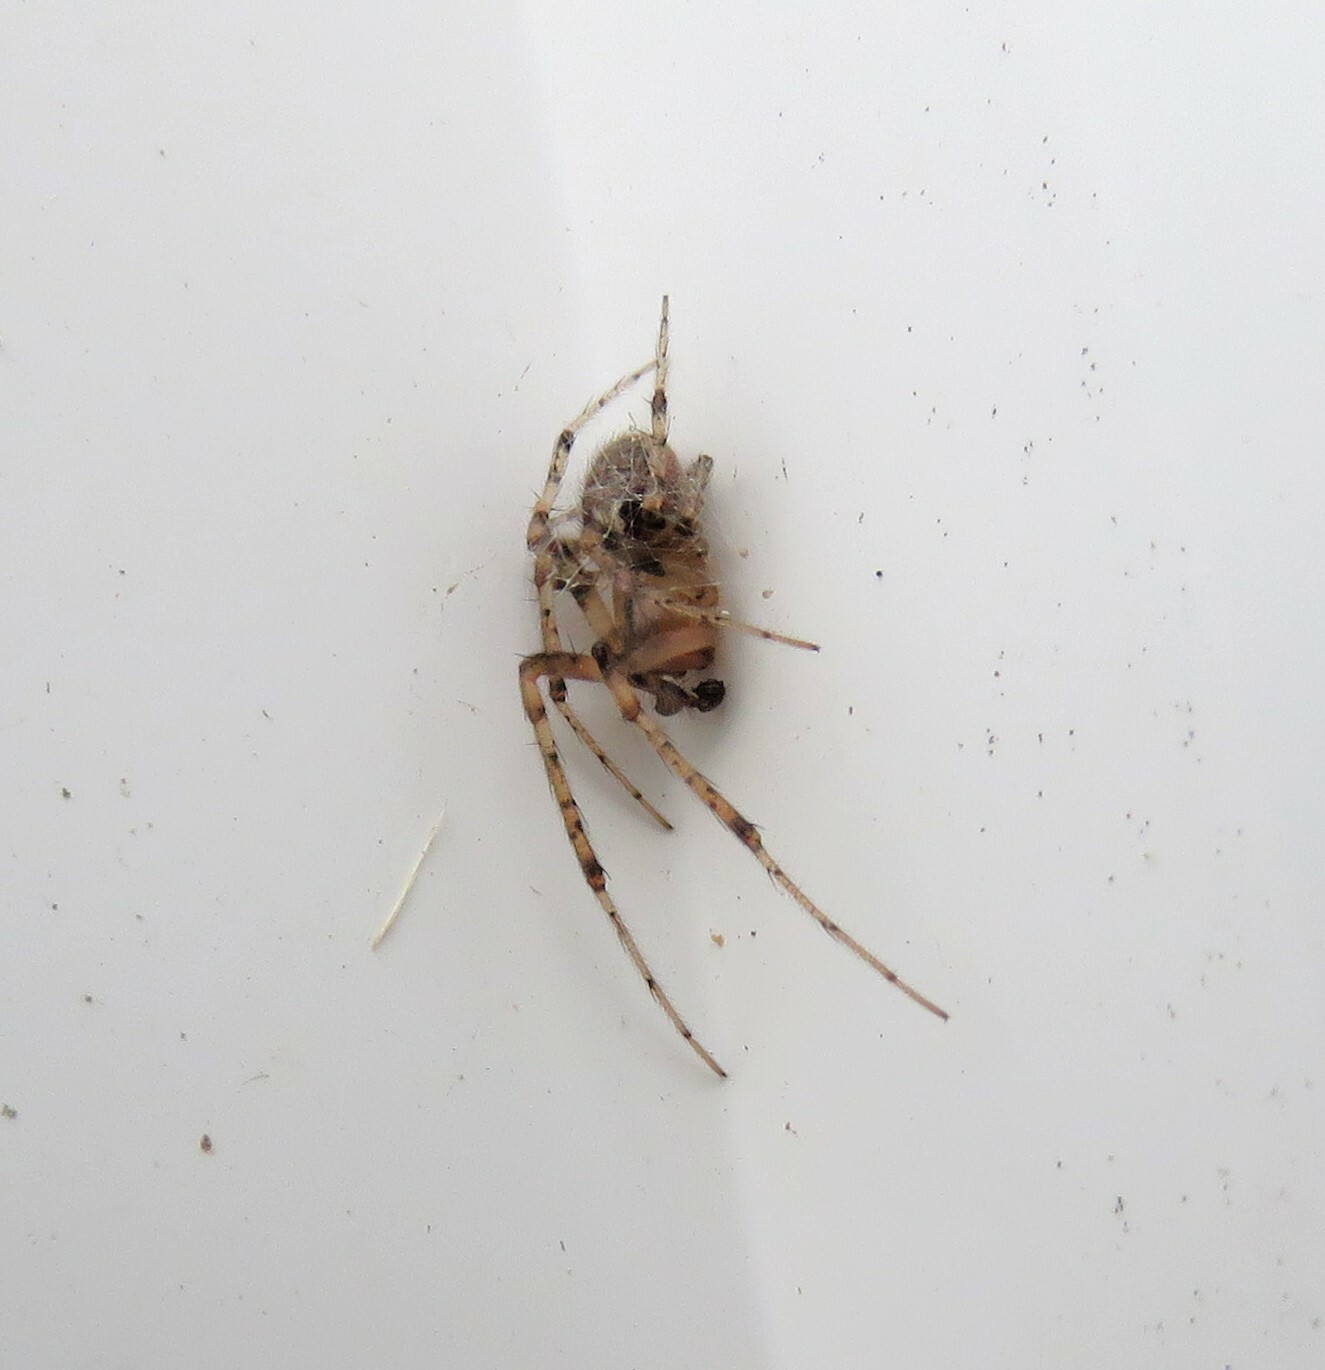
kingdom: Animalia
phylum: Arthropoda
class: Arachnida
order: Araneae
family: Araneidae
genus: Zygiella
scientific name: Zygiella atrica
